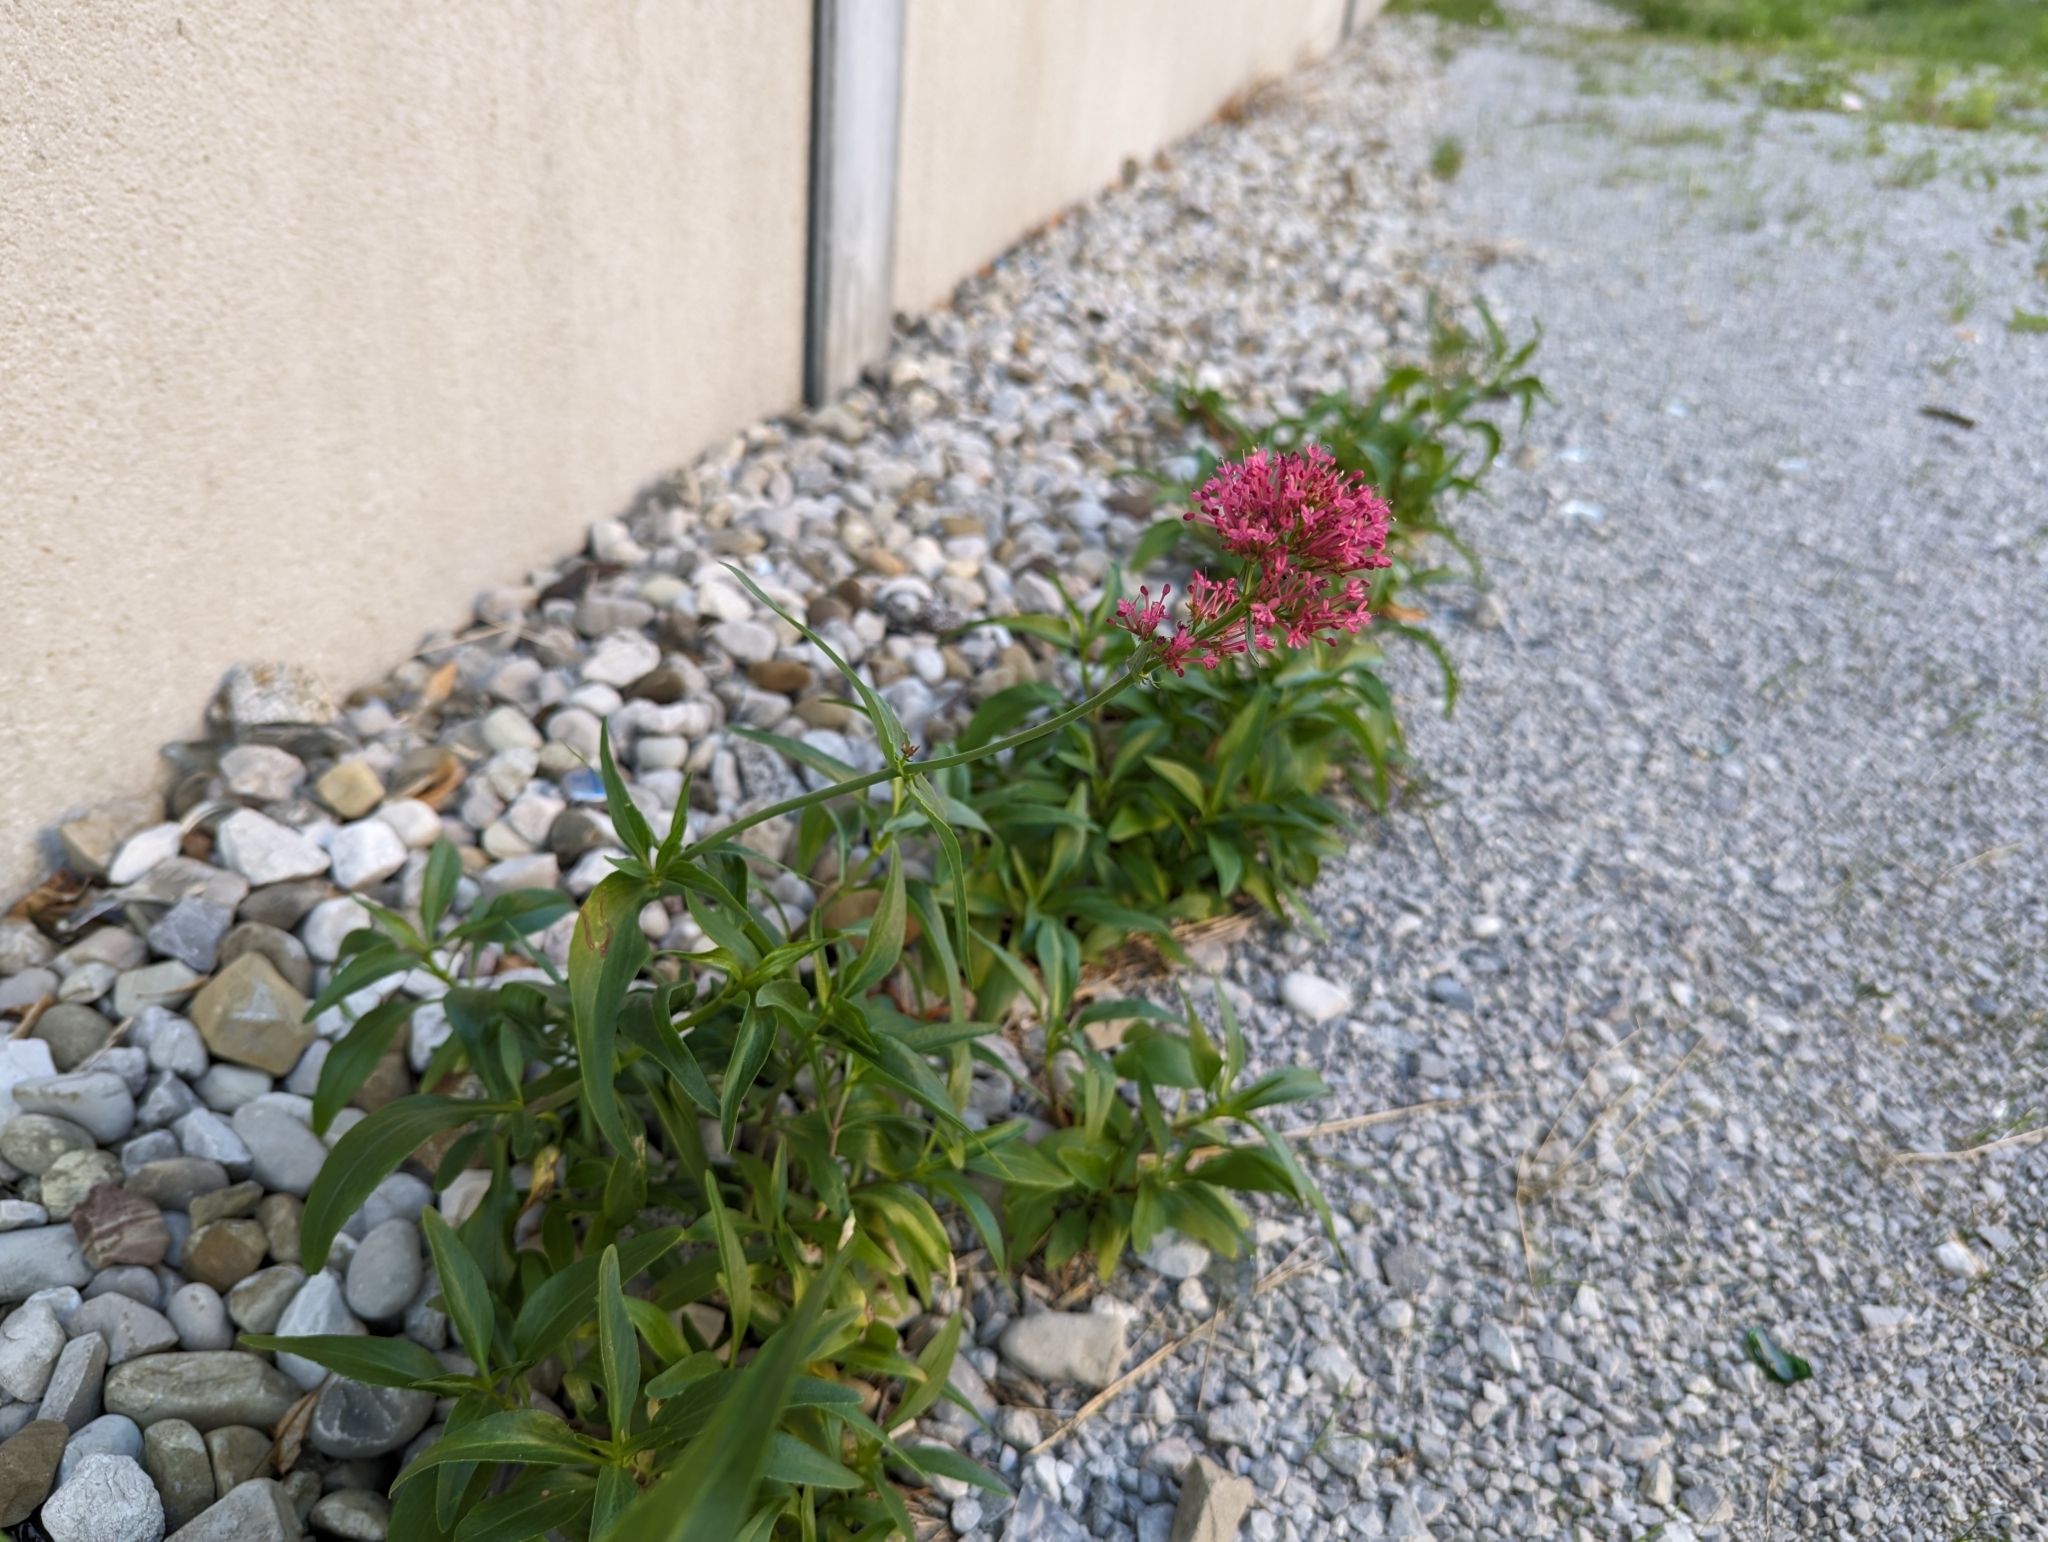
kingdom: Plantae
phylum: Tracheophyta
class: Magnoliopsida
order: Dipsacales
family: Caprifoliaceae
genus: Centranthus
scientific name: Centranthus ruber
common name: Red valerian
